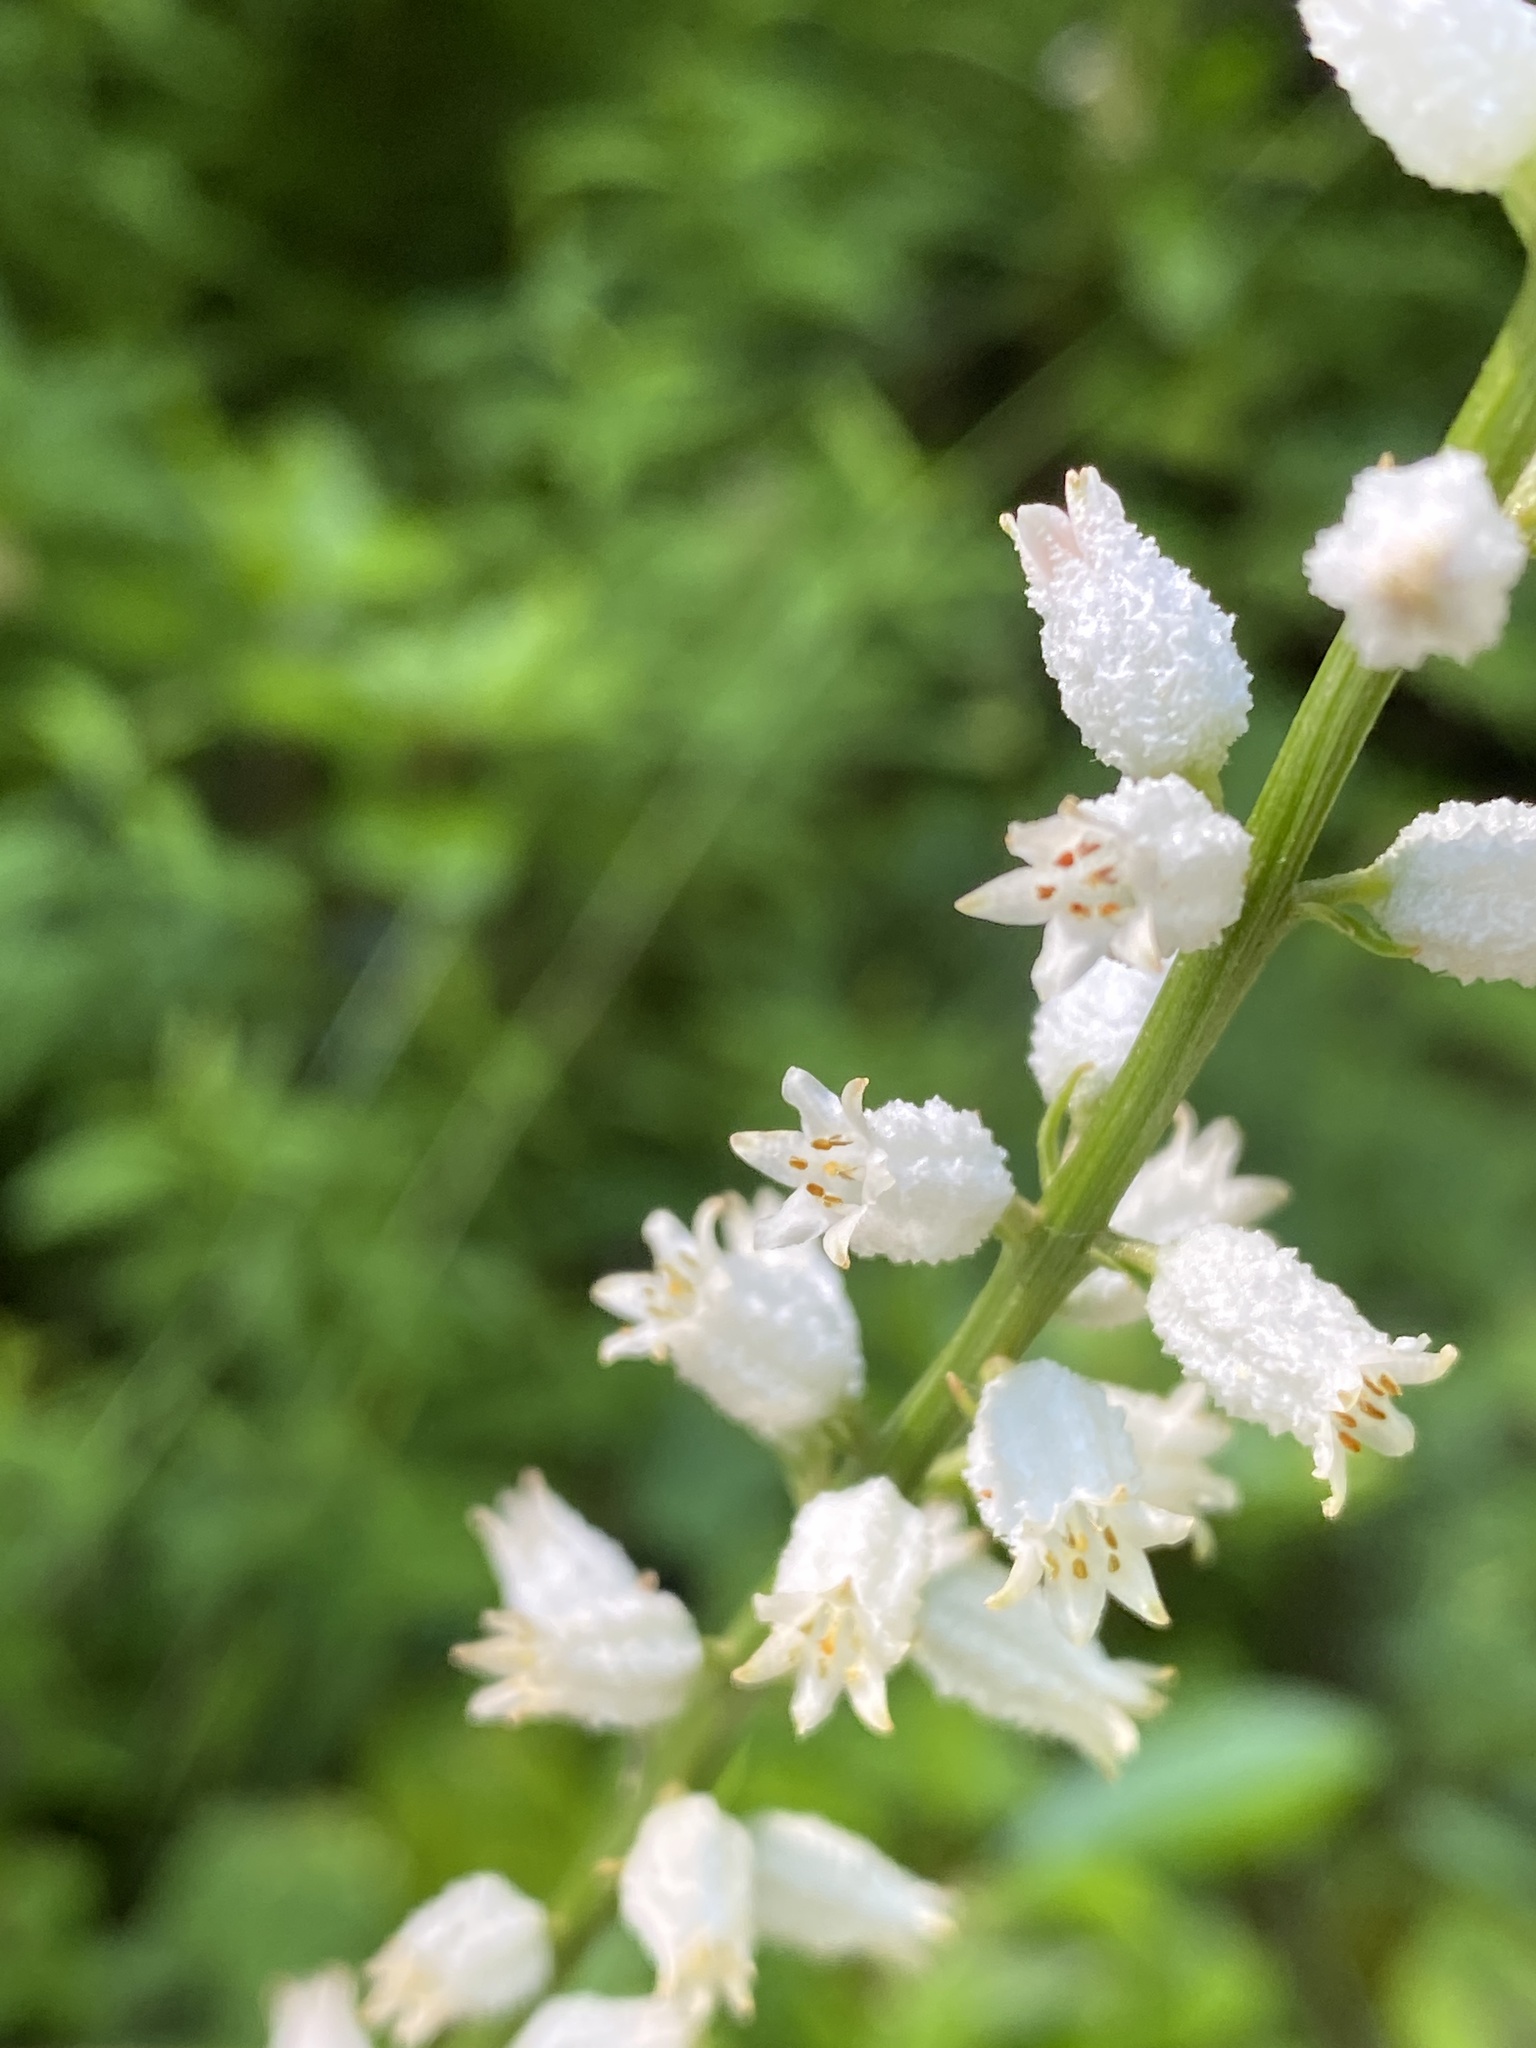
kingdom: Plantae
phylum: Tracheophyta
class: Liliopsida
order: Dioscoreales
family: Nartheciaceae
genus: Aletris
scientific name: Aletris farinosa
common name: Colicroot
